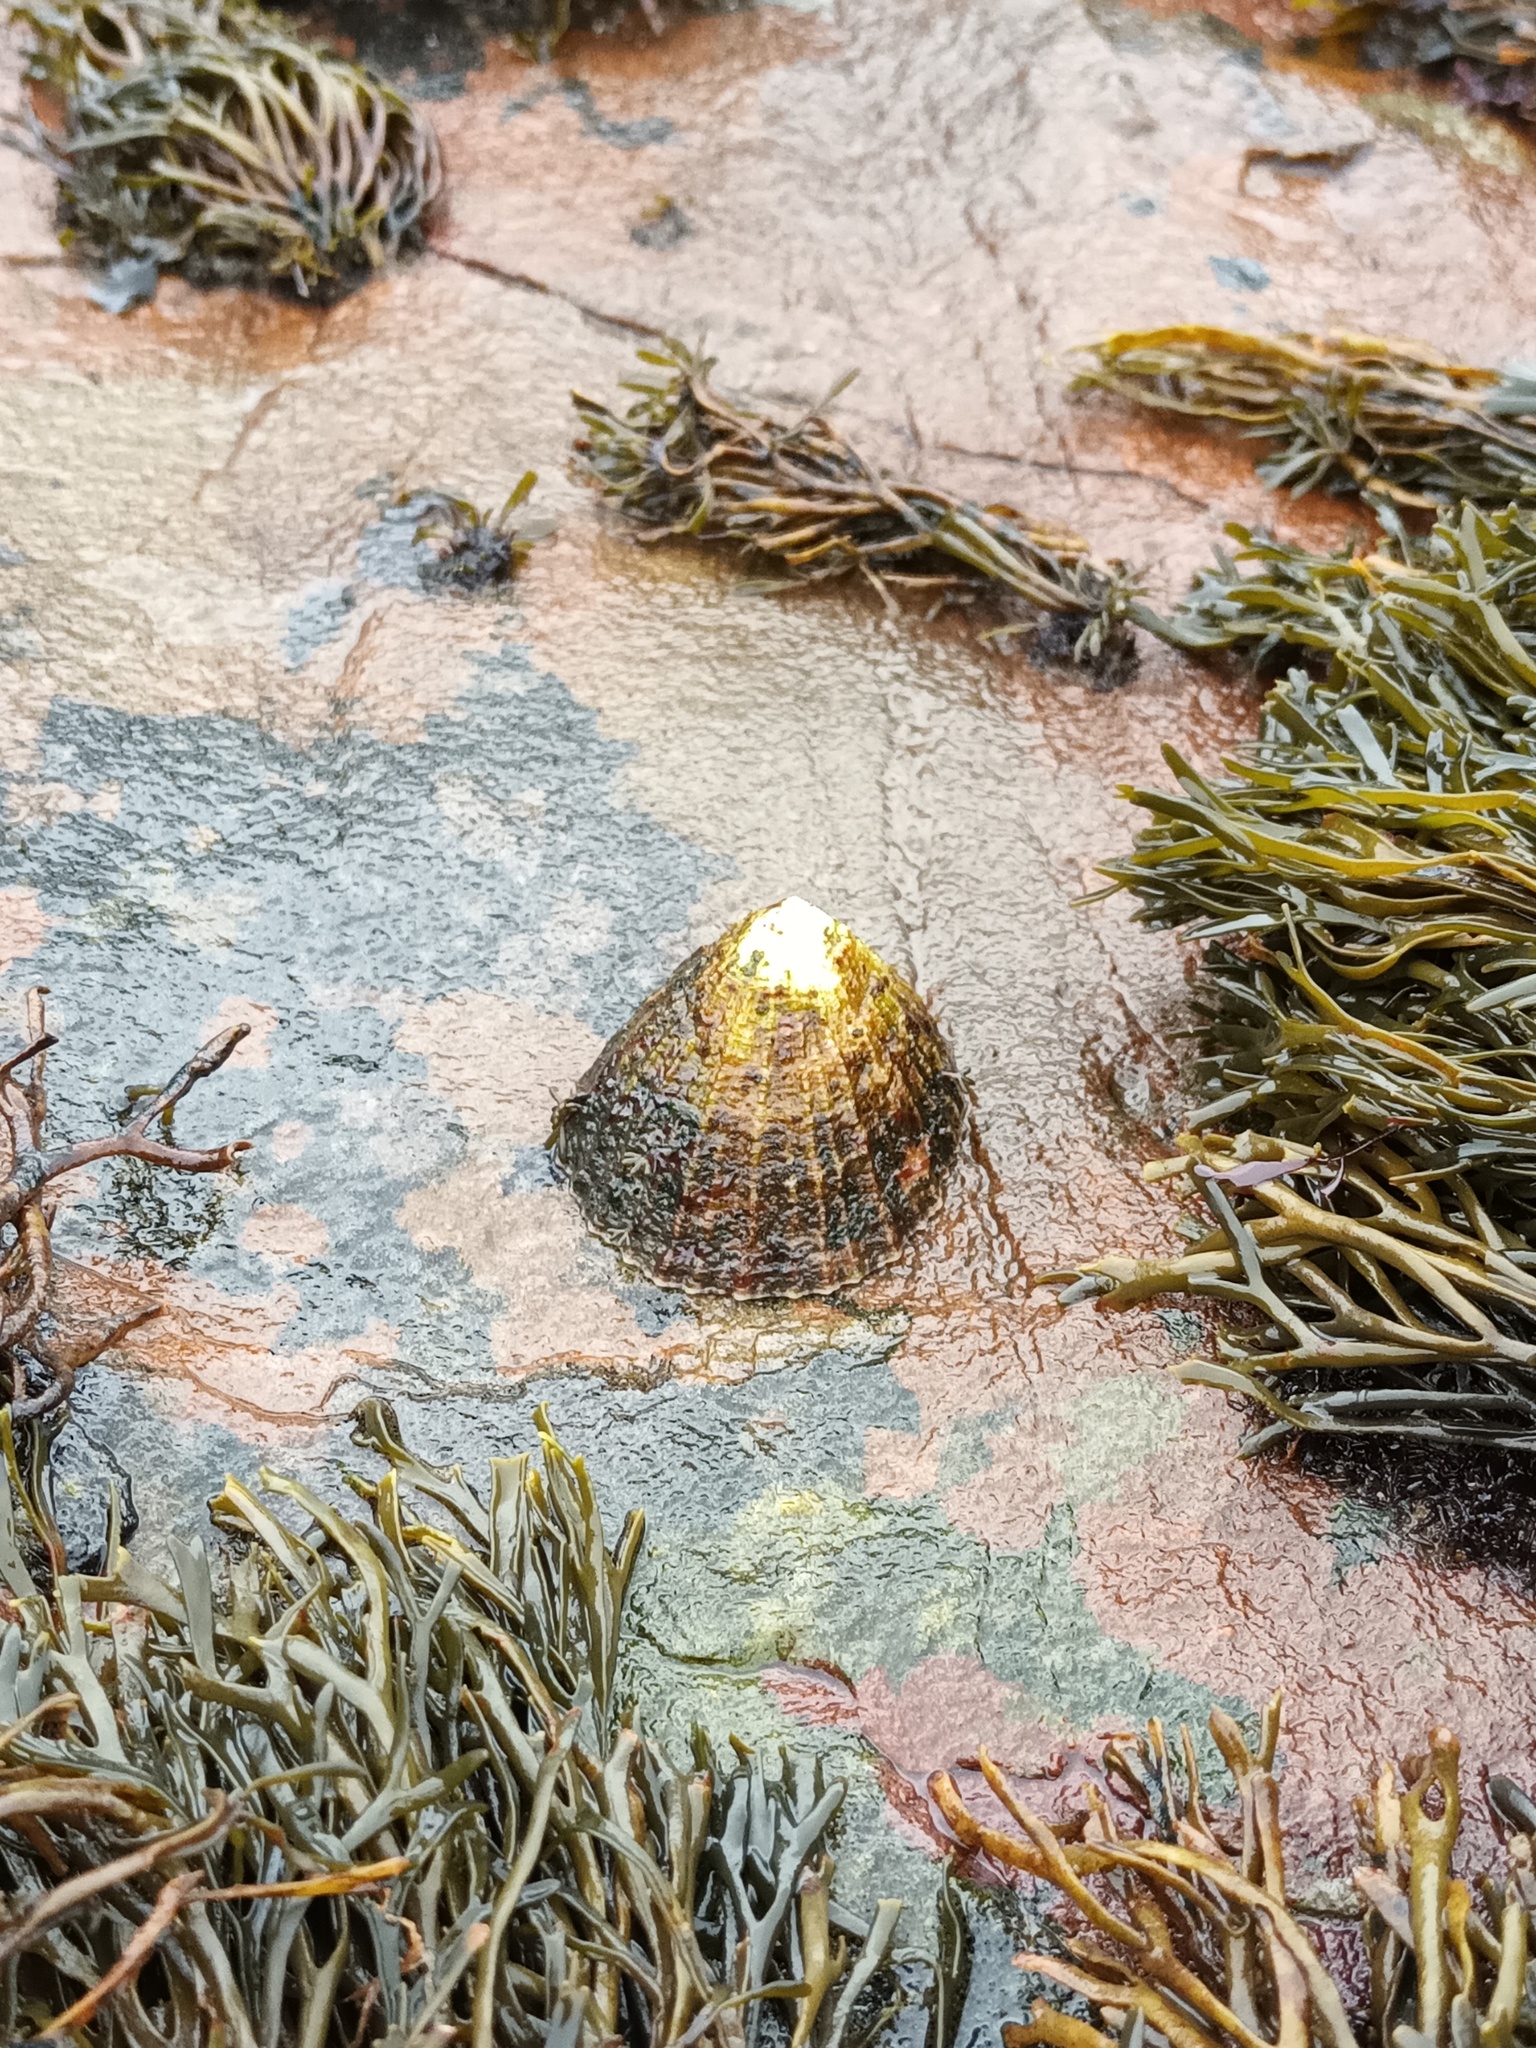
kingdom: Animalia
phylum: Mollusca
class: Gastropoda
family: Patellidae
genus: Patella
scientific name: Patella vulgata
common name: Common limpet
